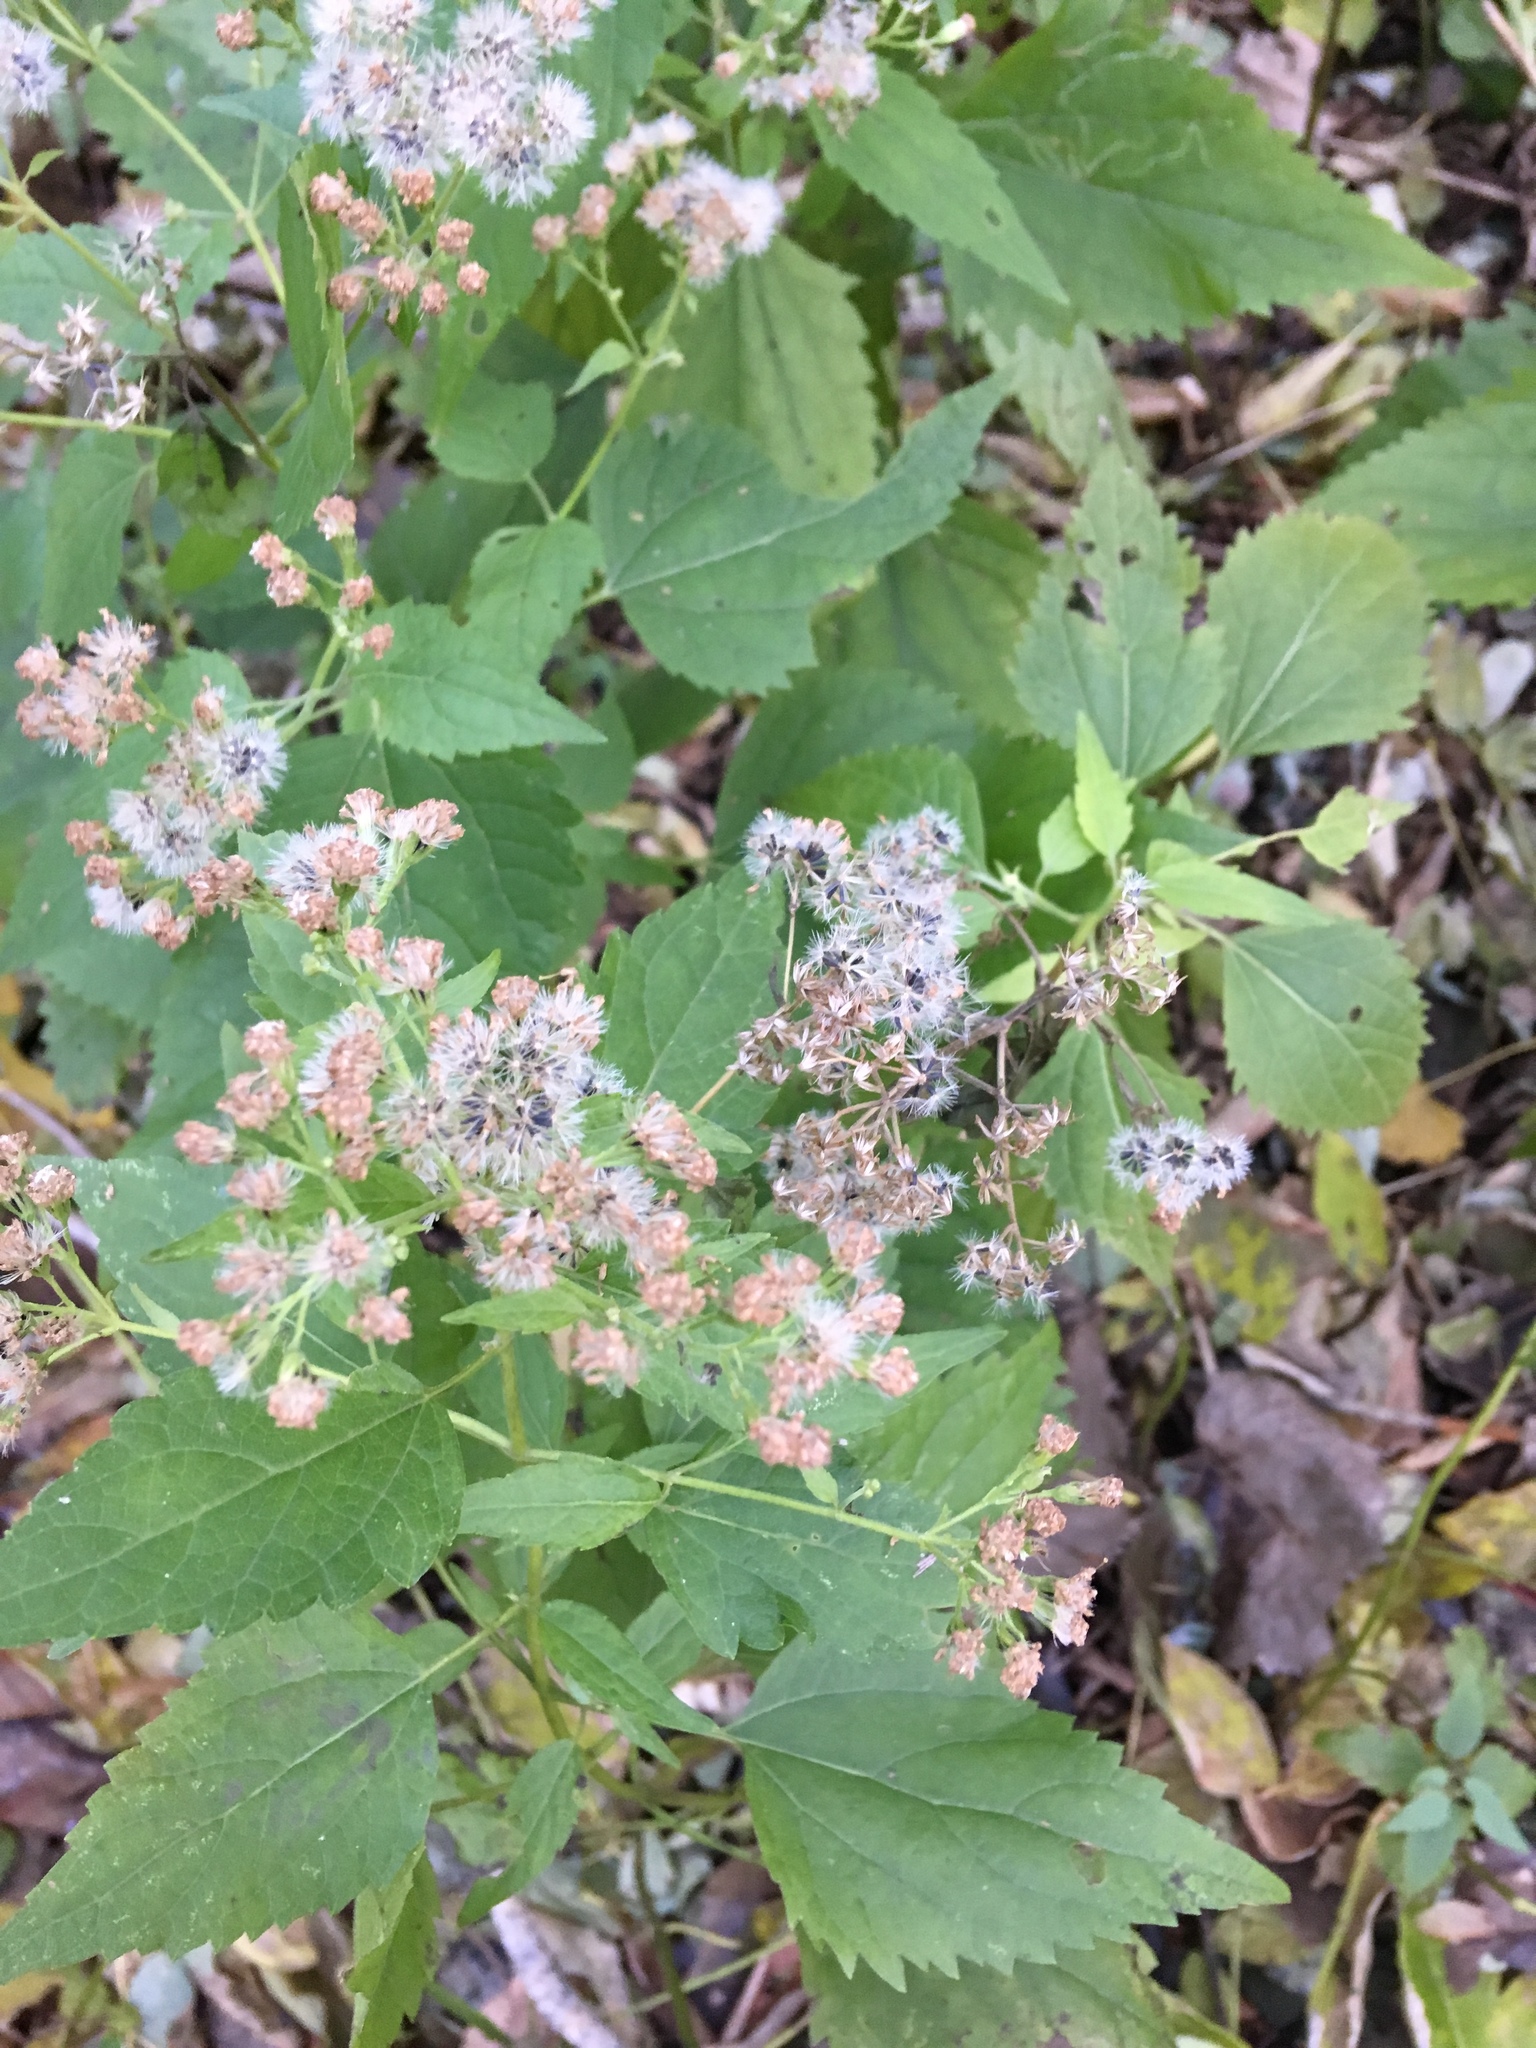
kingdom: Plantae
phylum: Tracheophyta
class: Magnoliopsida
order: Asterales
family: Asteraceae
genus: Ageratina
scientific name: Ageratina altissima
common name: White snakeroot
